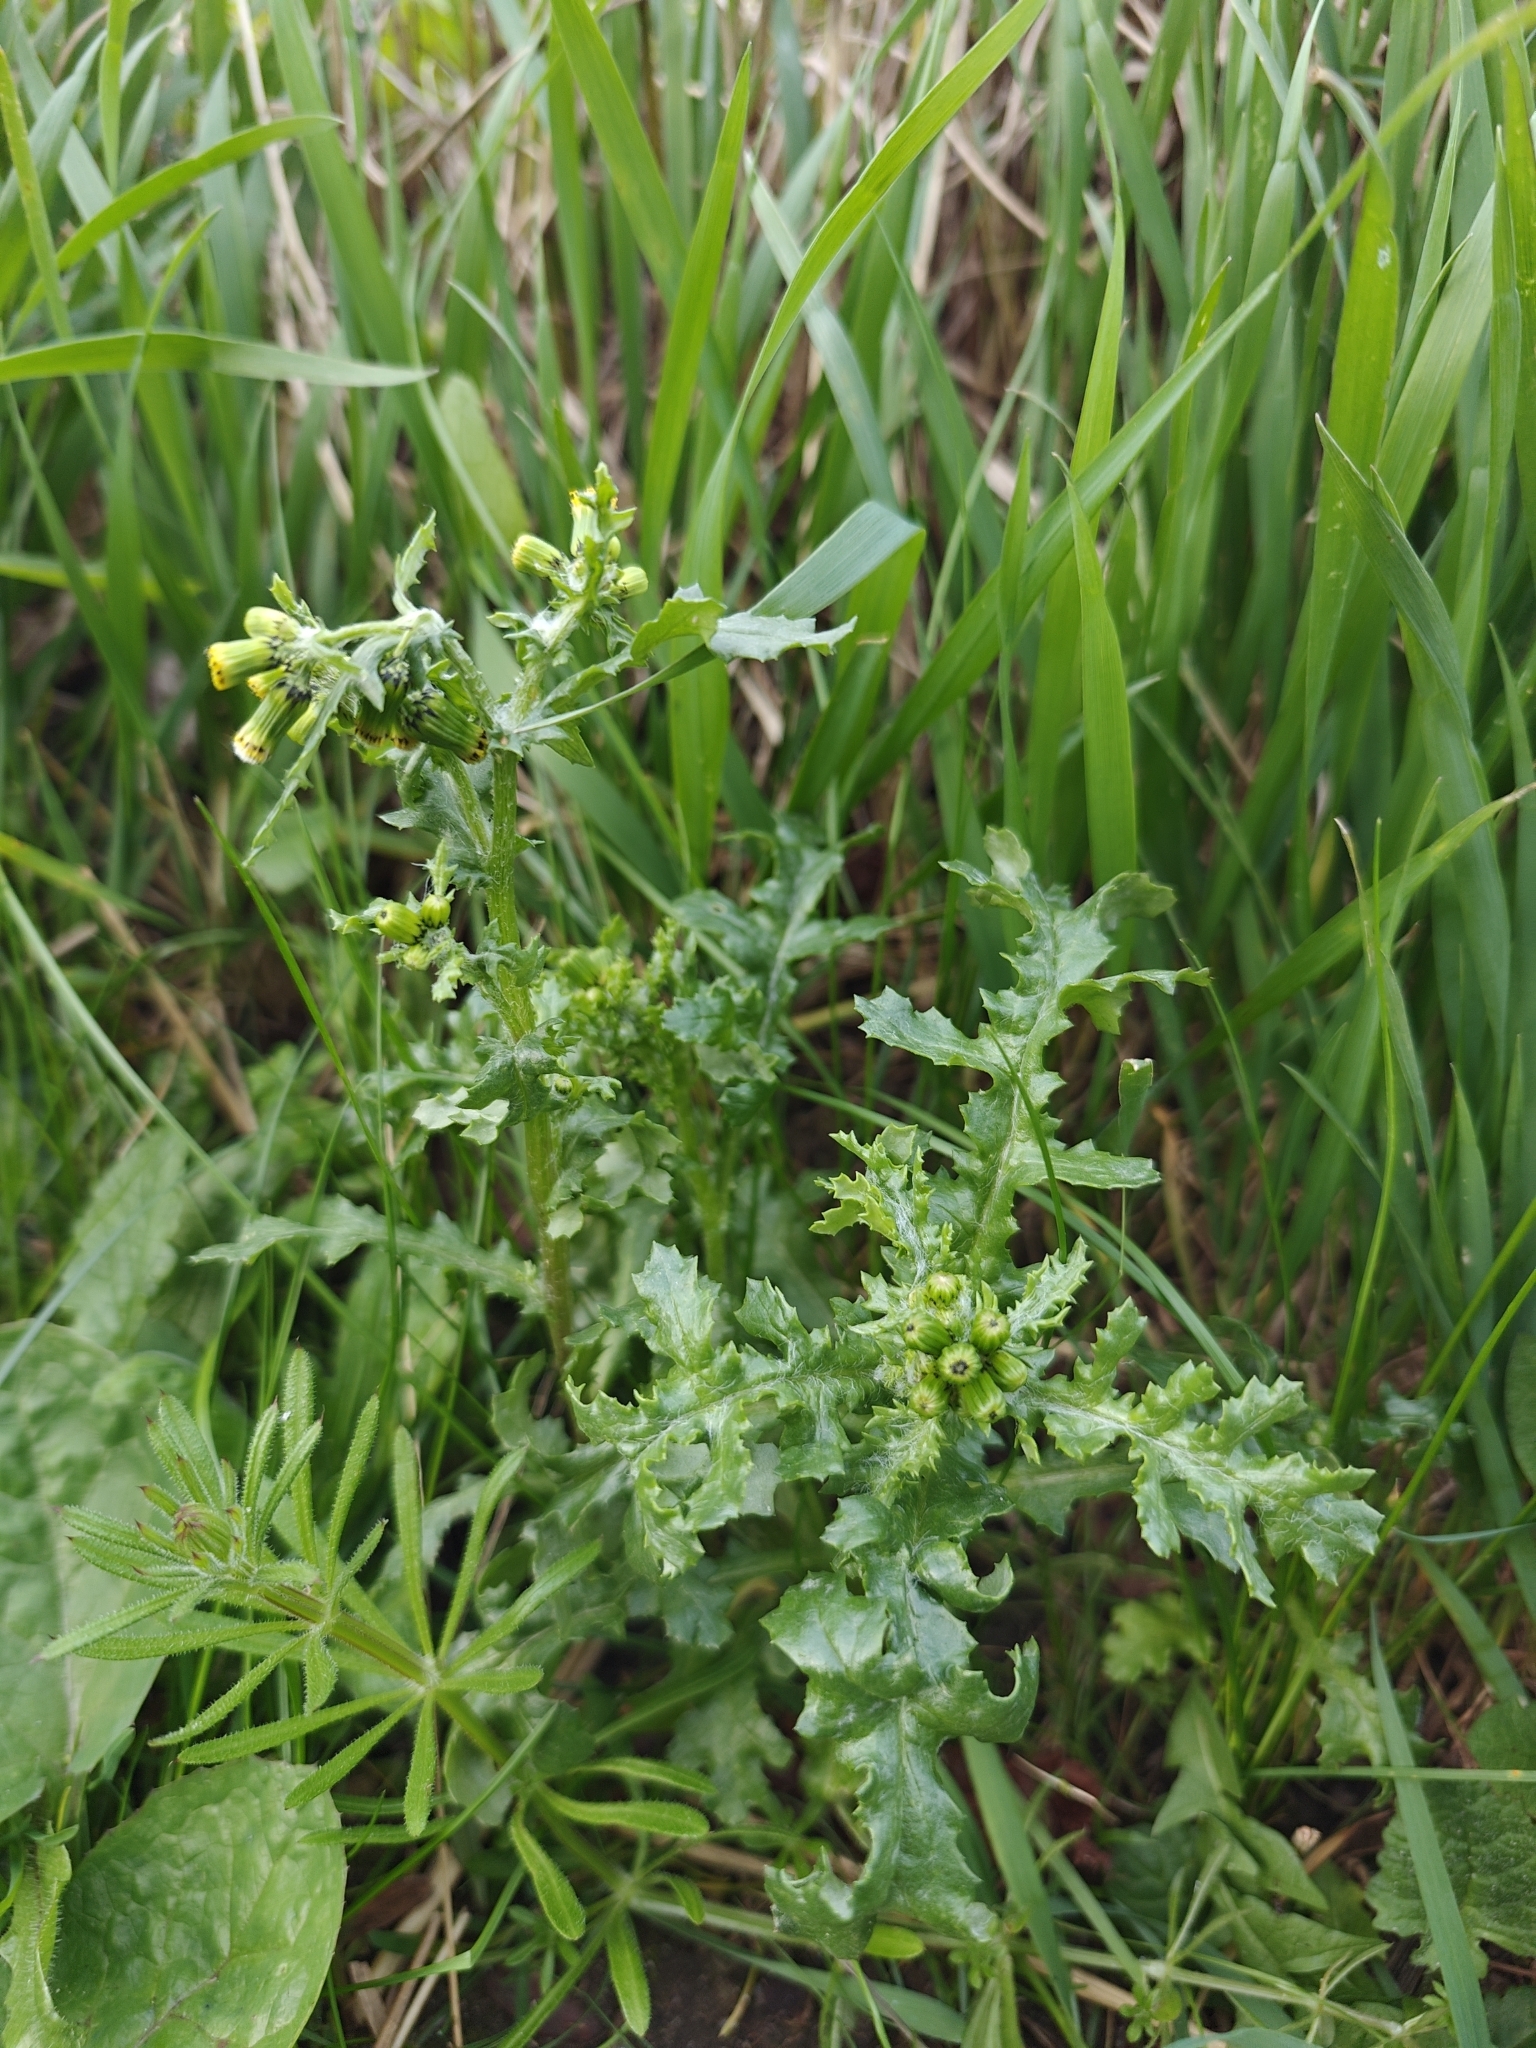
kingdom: Plantae
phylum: Tracheophyta
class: Magnoliopsida
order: Asterales
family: Asteraceae
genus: Senecio
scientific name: Senecio vulgaris
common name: Old-man-in-the-spring
